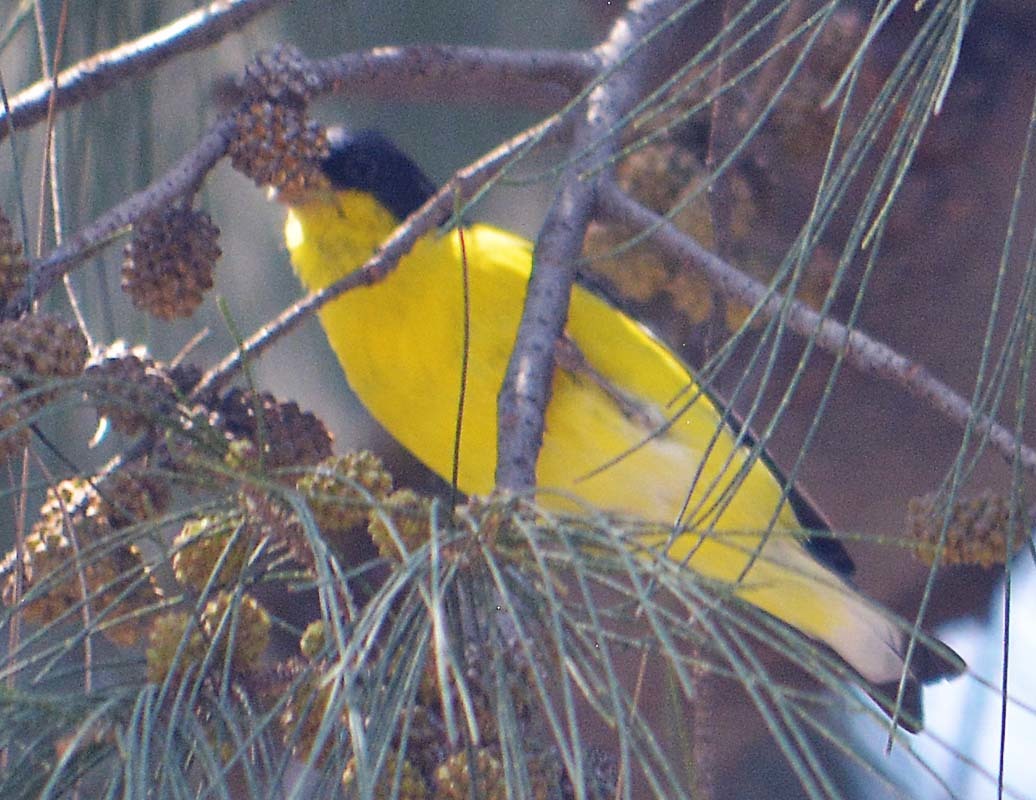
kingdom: Animalia
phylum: Chordata
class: Aves
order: Passeriformes
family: Fringillidae
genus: Spinus
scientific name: Spinus psaltria
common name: Lesser goldfinch
